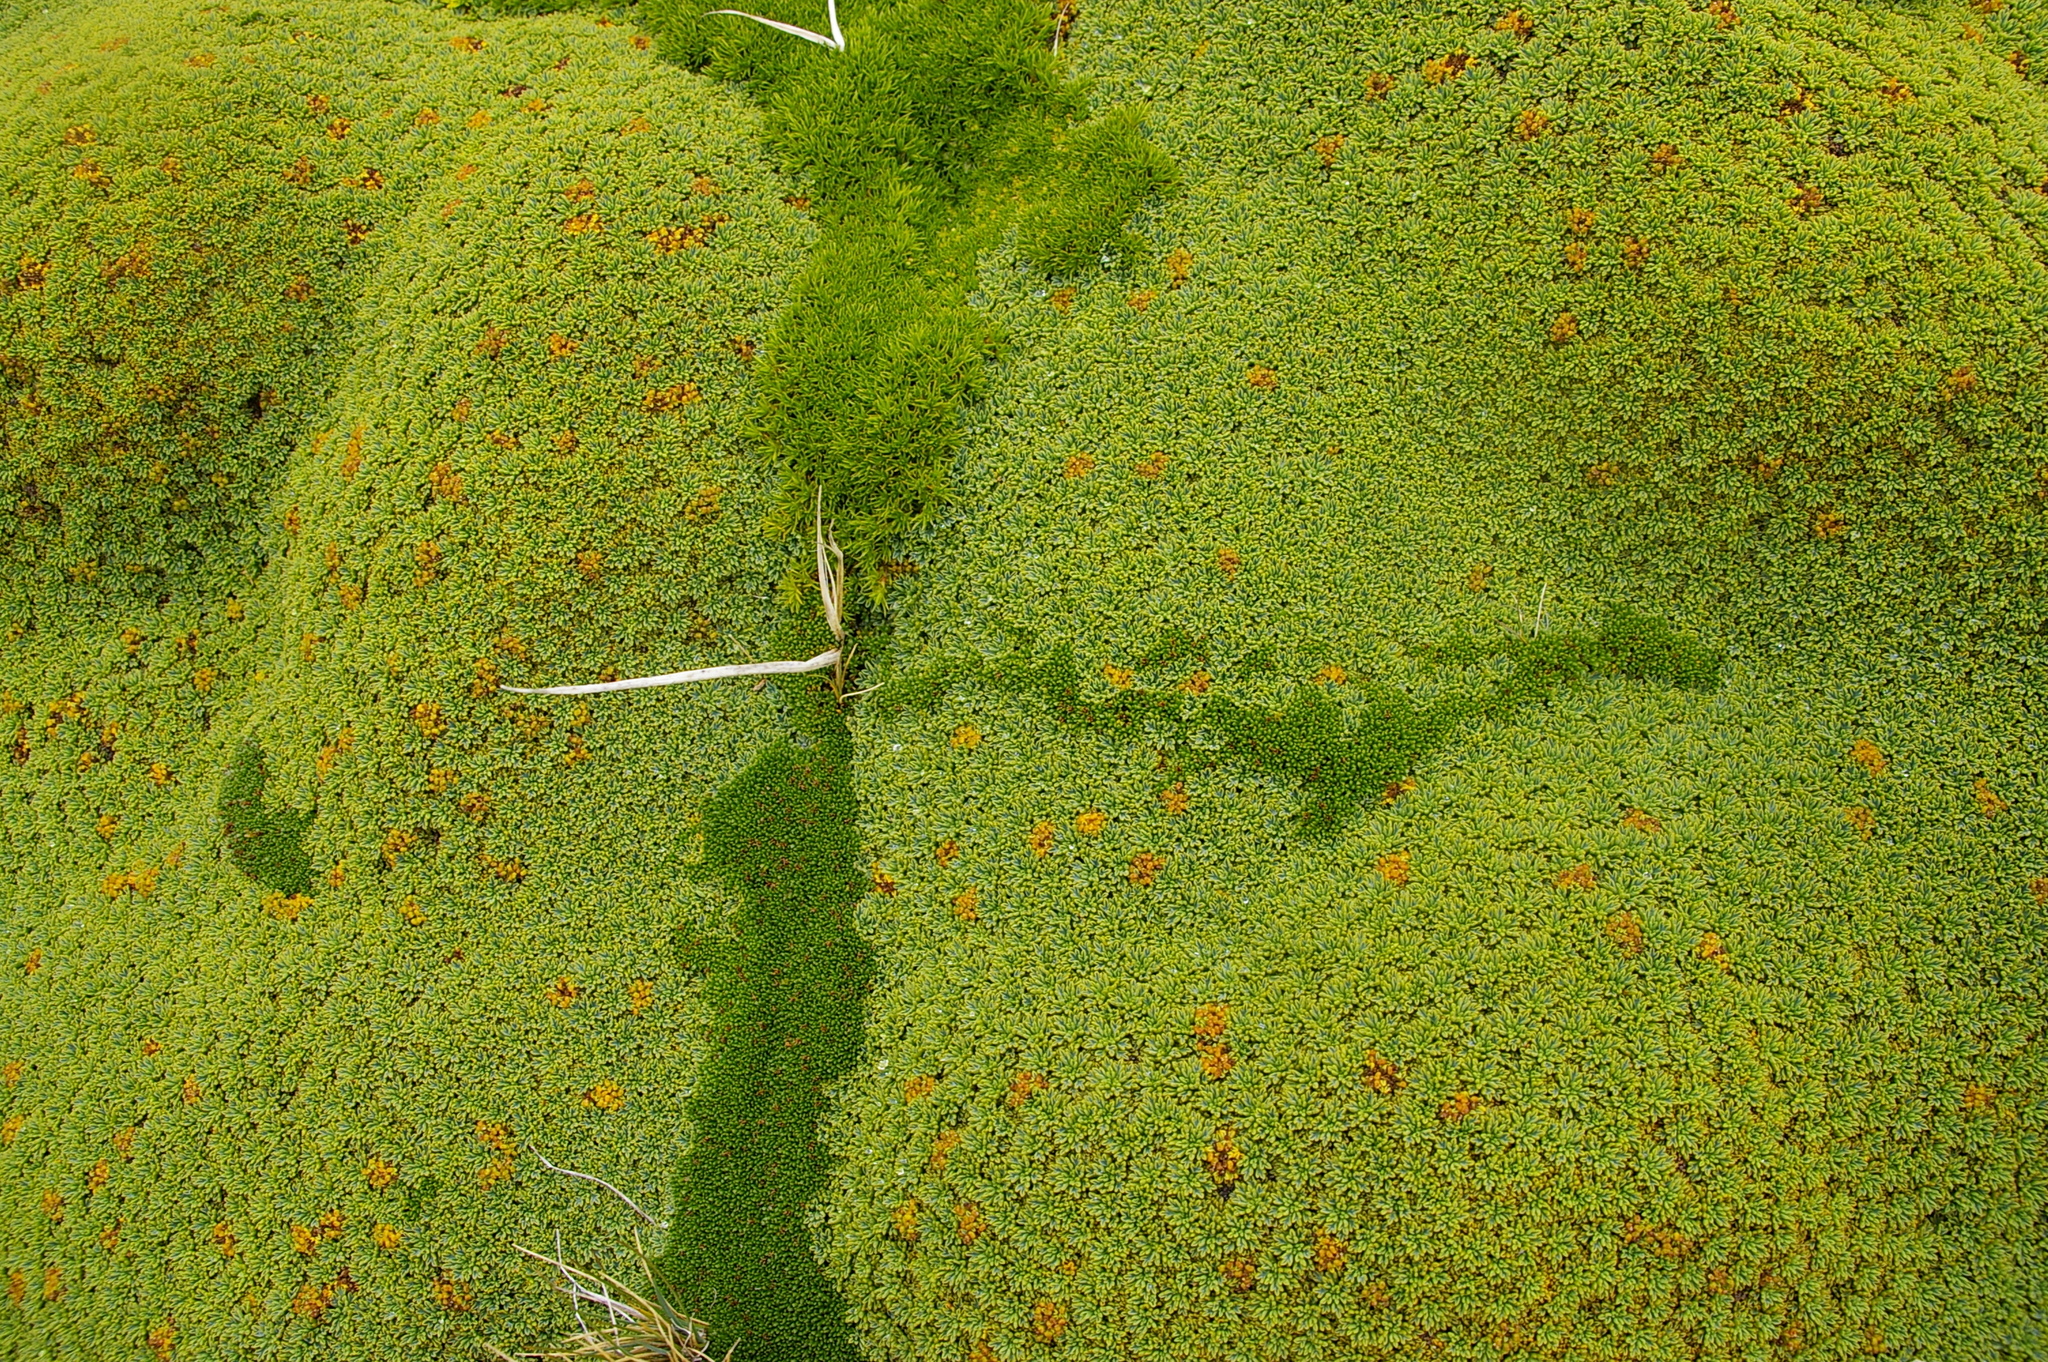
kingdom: Plantae
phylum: Tracheophyta
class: Magnoliopsida
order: Apiales
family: Apiaceae
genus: Bolax
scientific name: Bolax gummifera
